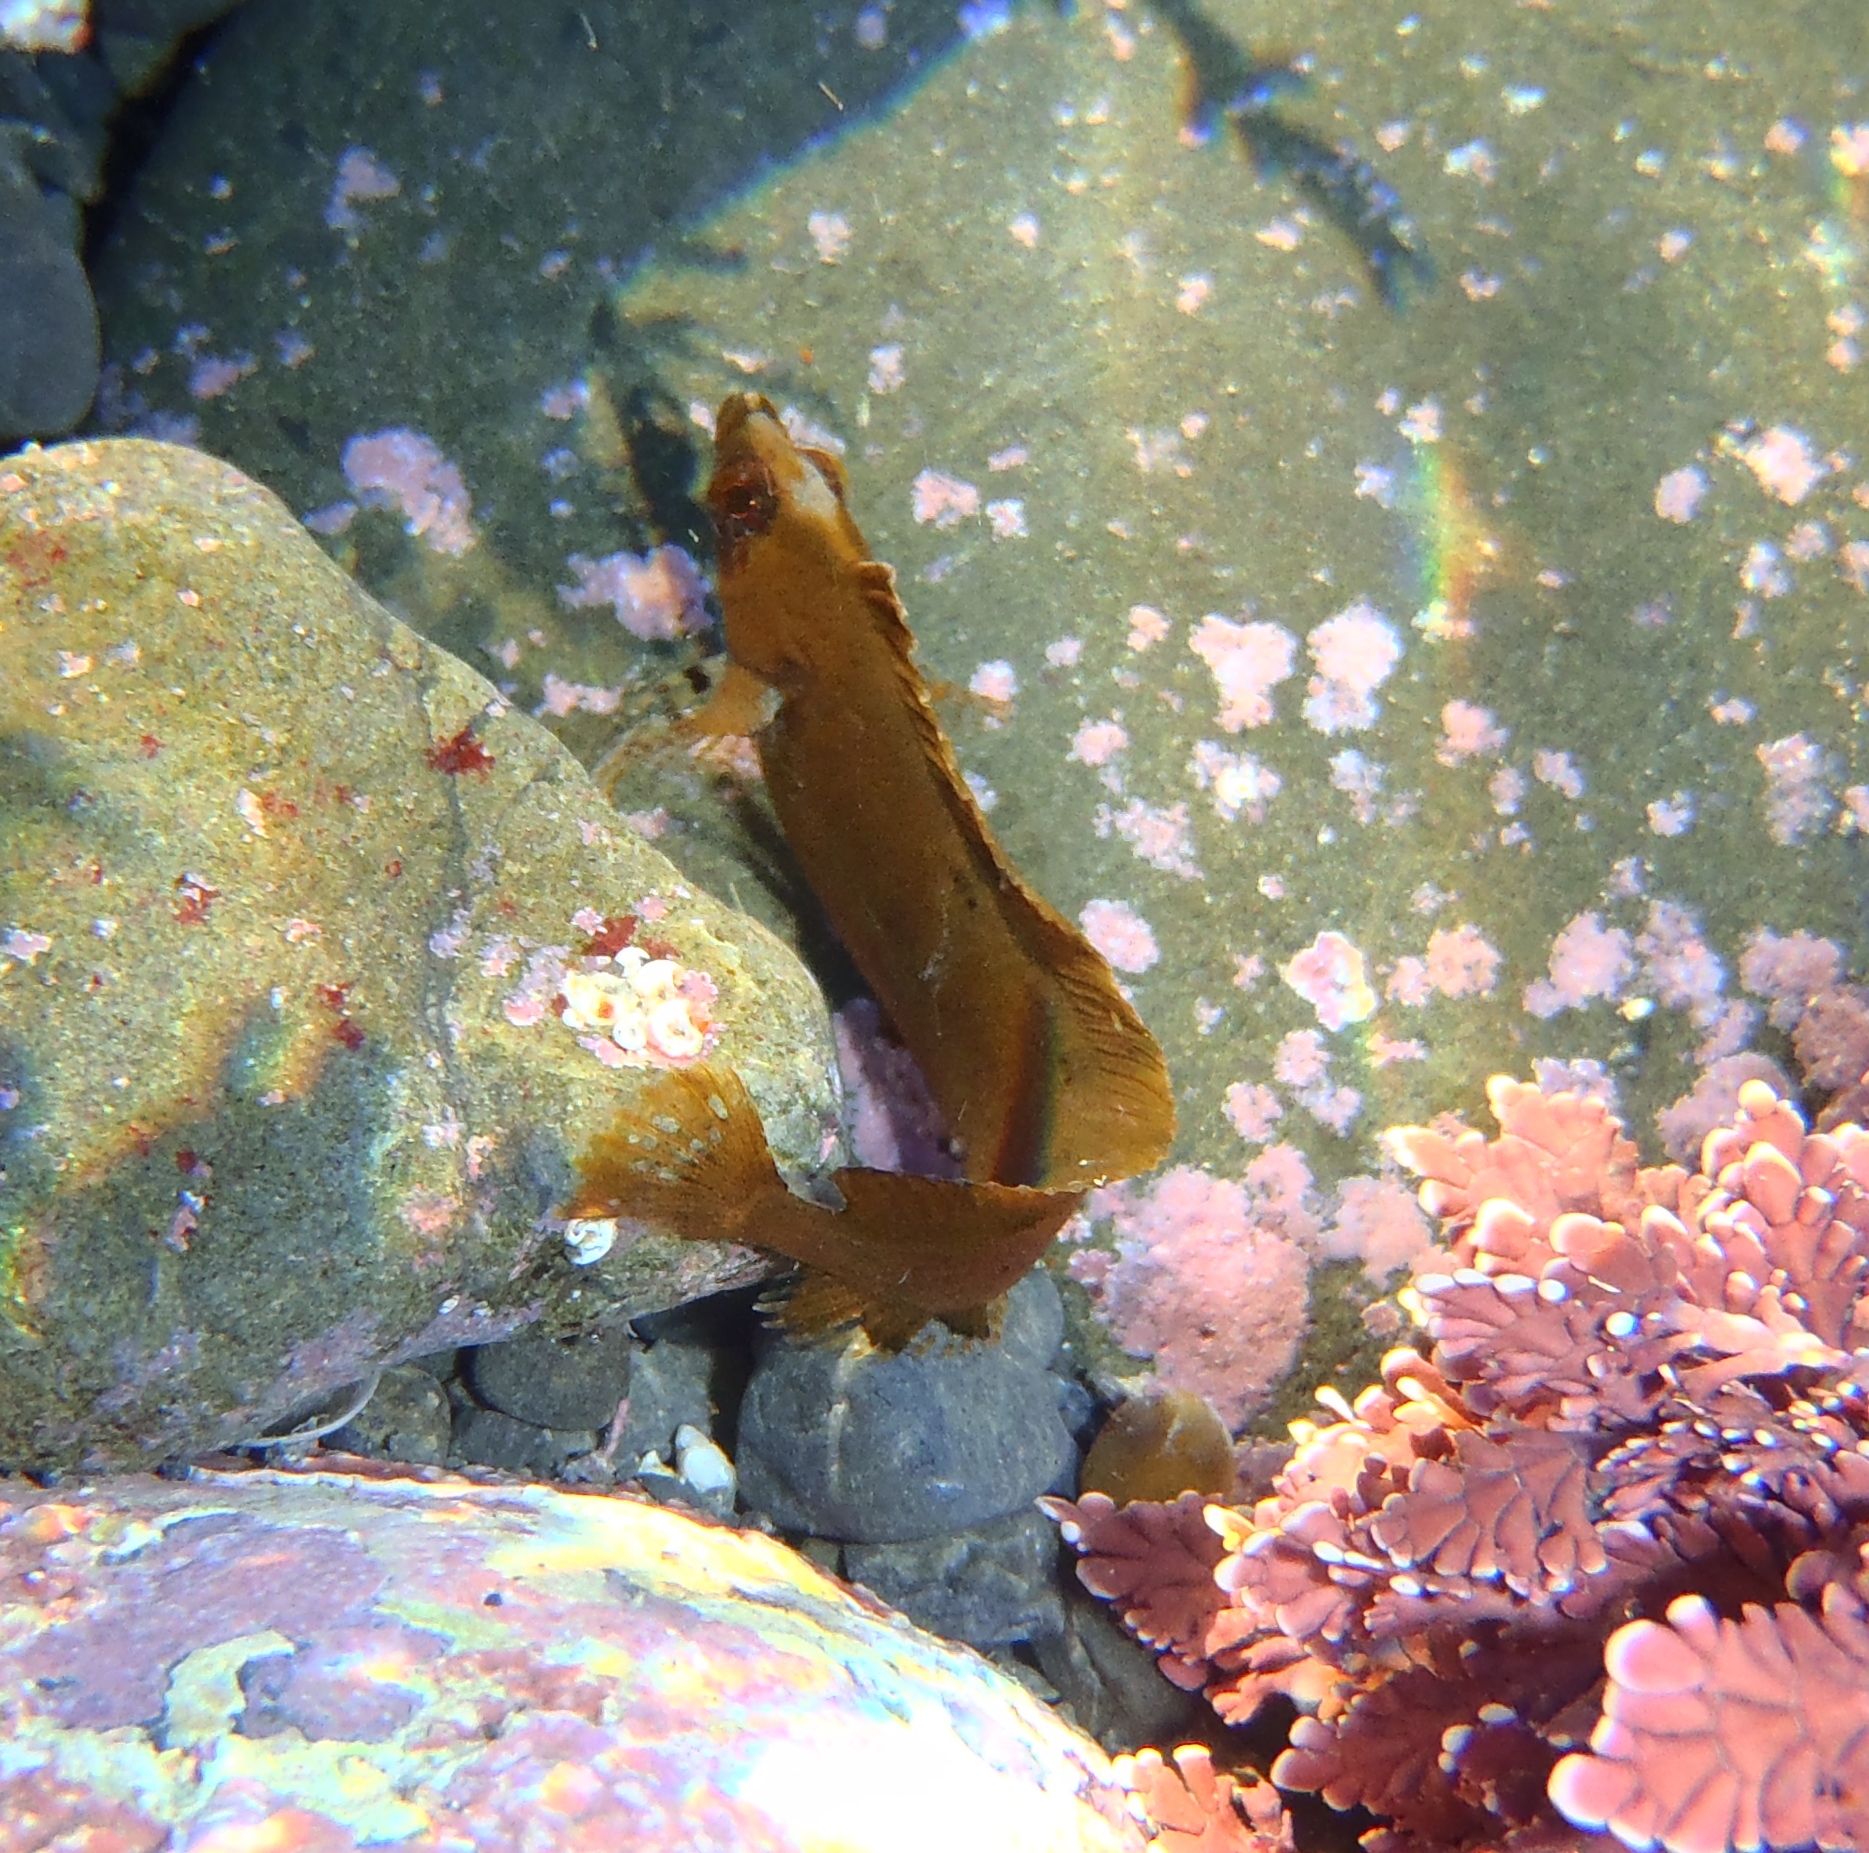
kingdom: Animalia
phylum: Chordata
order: Perciformes
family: Clinidae
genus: Ericentrus
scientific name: Ericentrus rubrus
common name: Orange clinid
